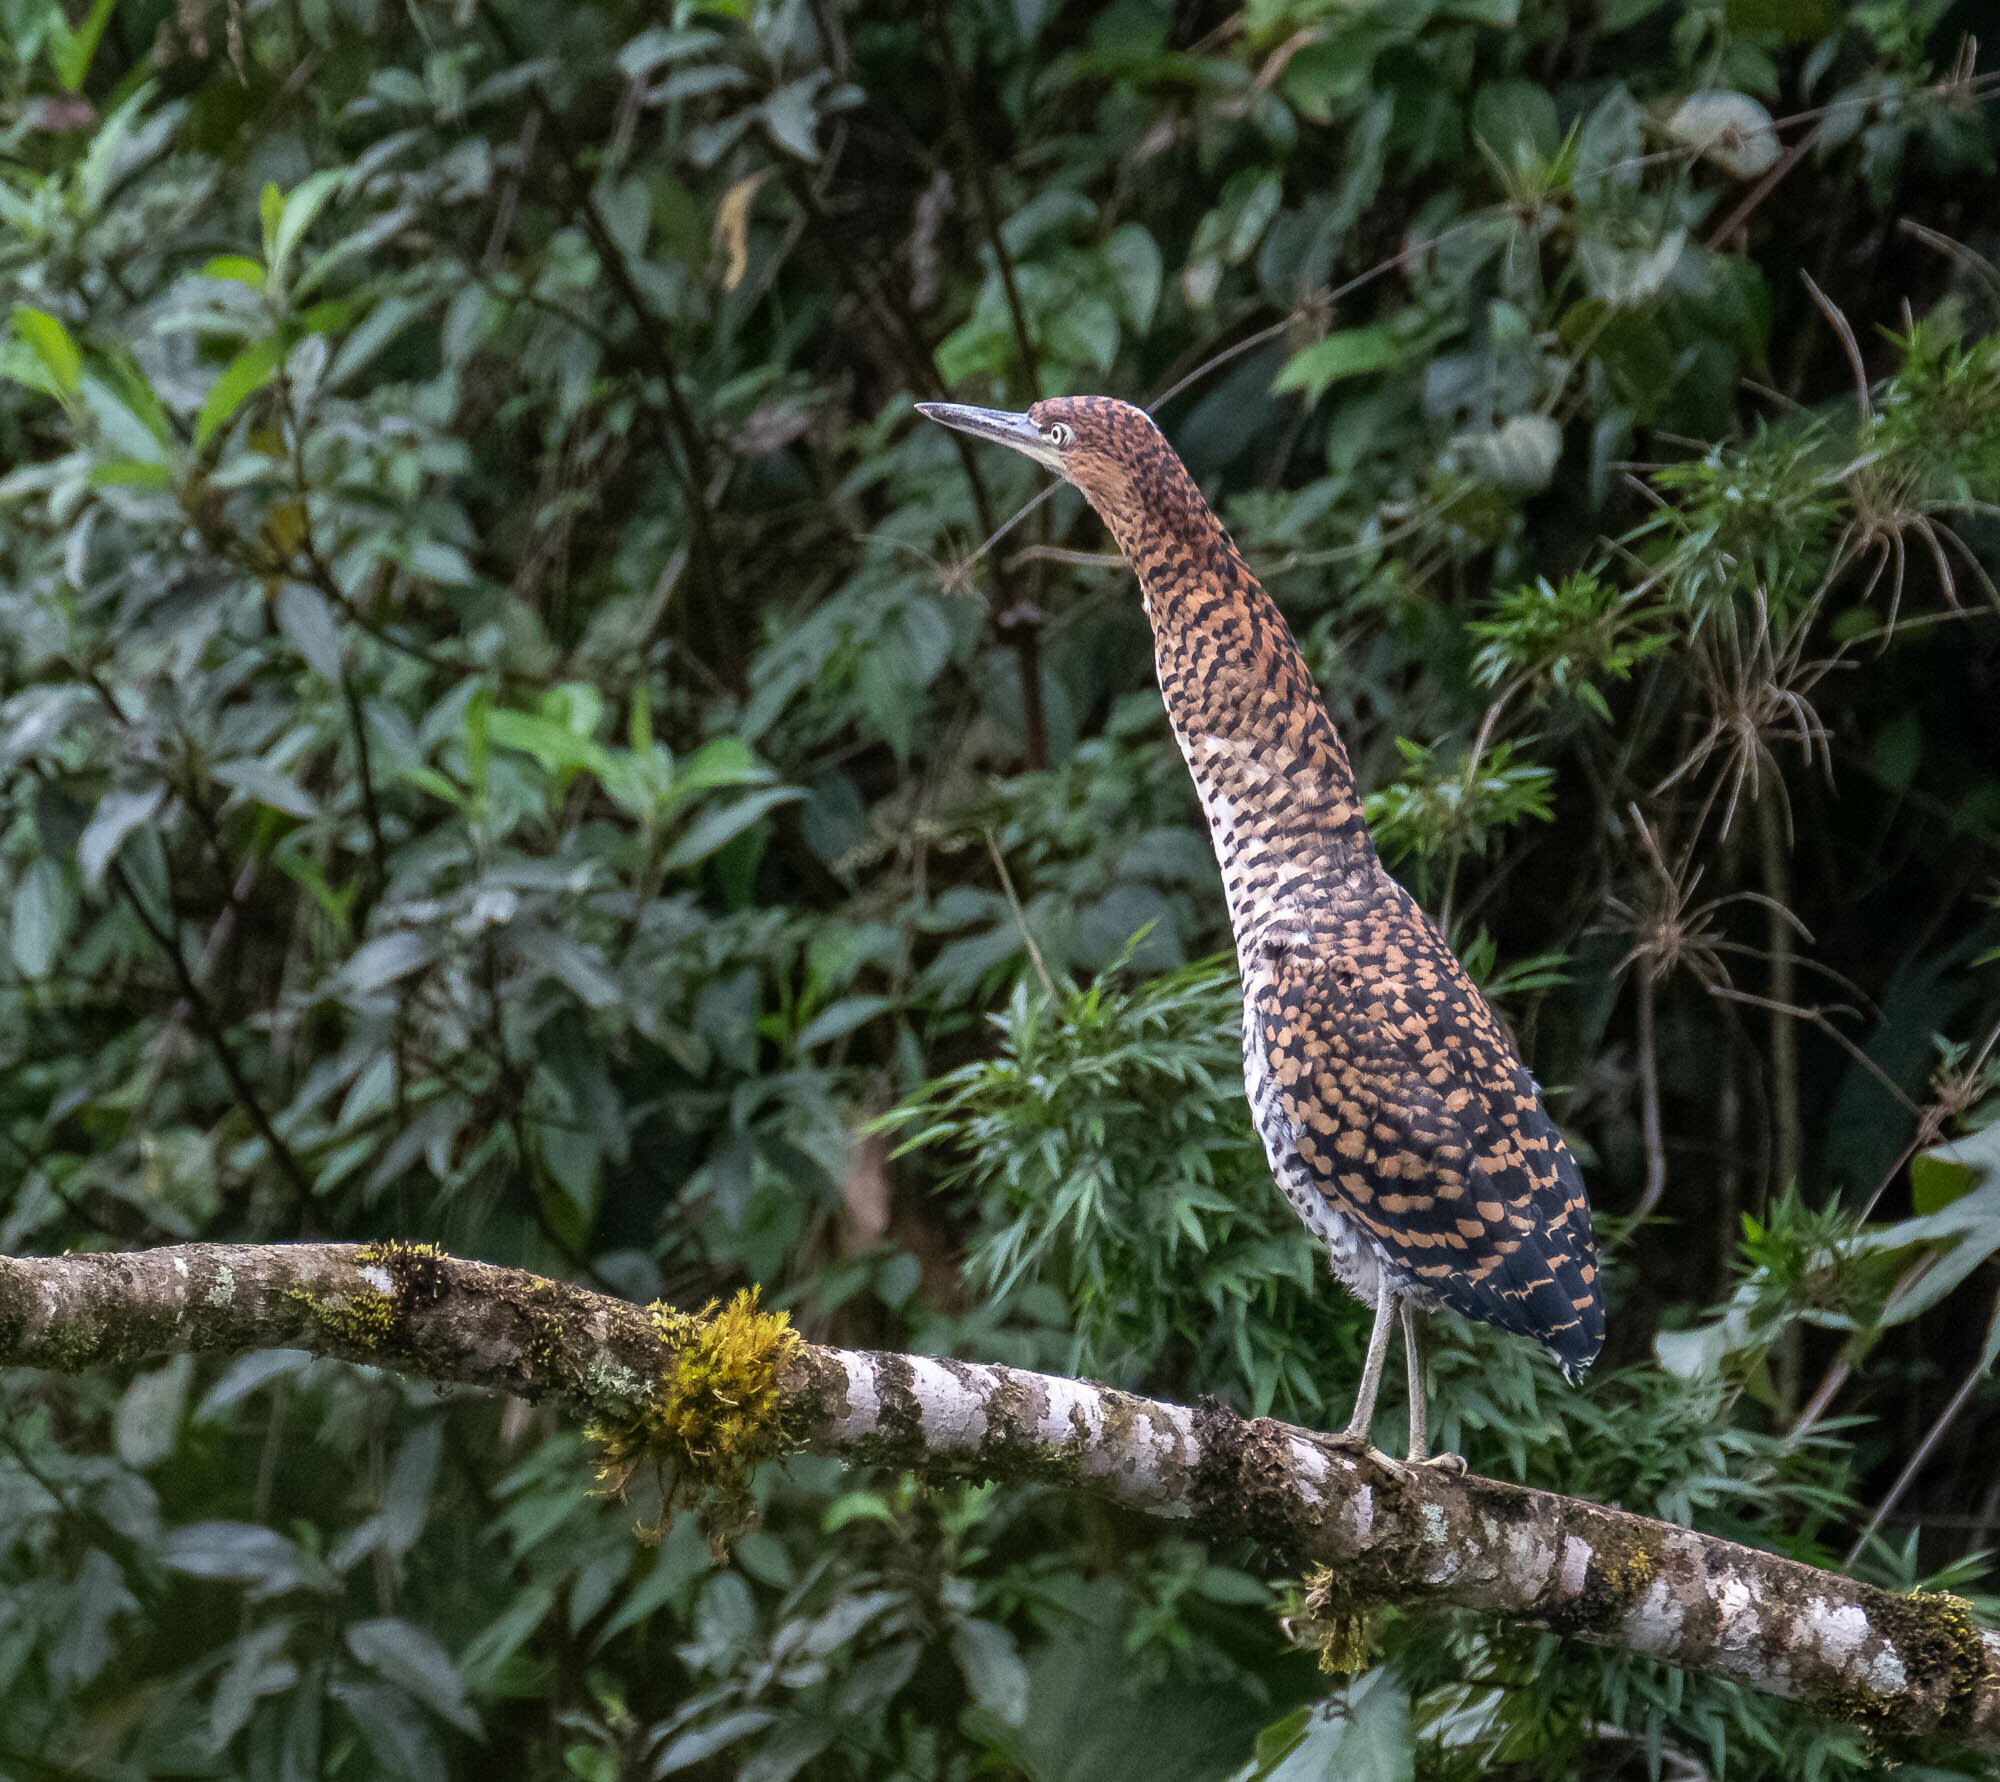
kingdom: Animalia
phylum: Chordata
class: Aves
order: Pelecaniformes
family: Ardeidae
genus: Tigrisoma
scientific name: Tigrisoma fasciatum
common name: Fasciated tiger-heron
